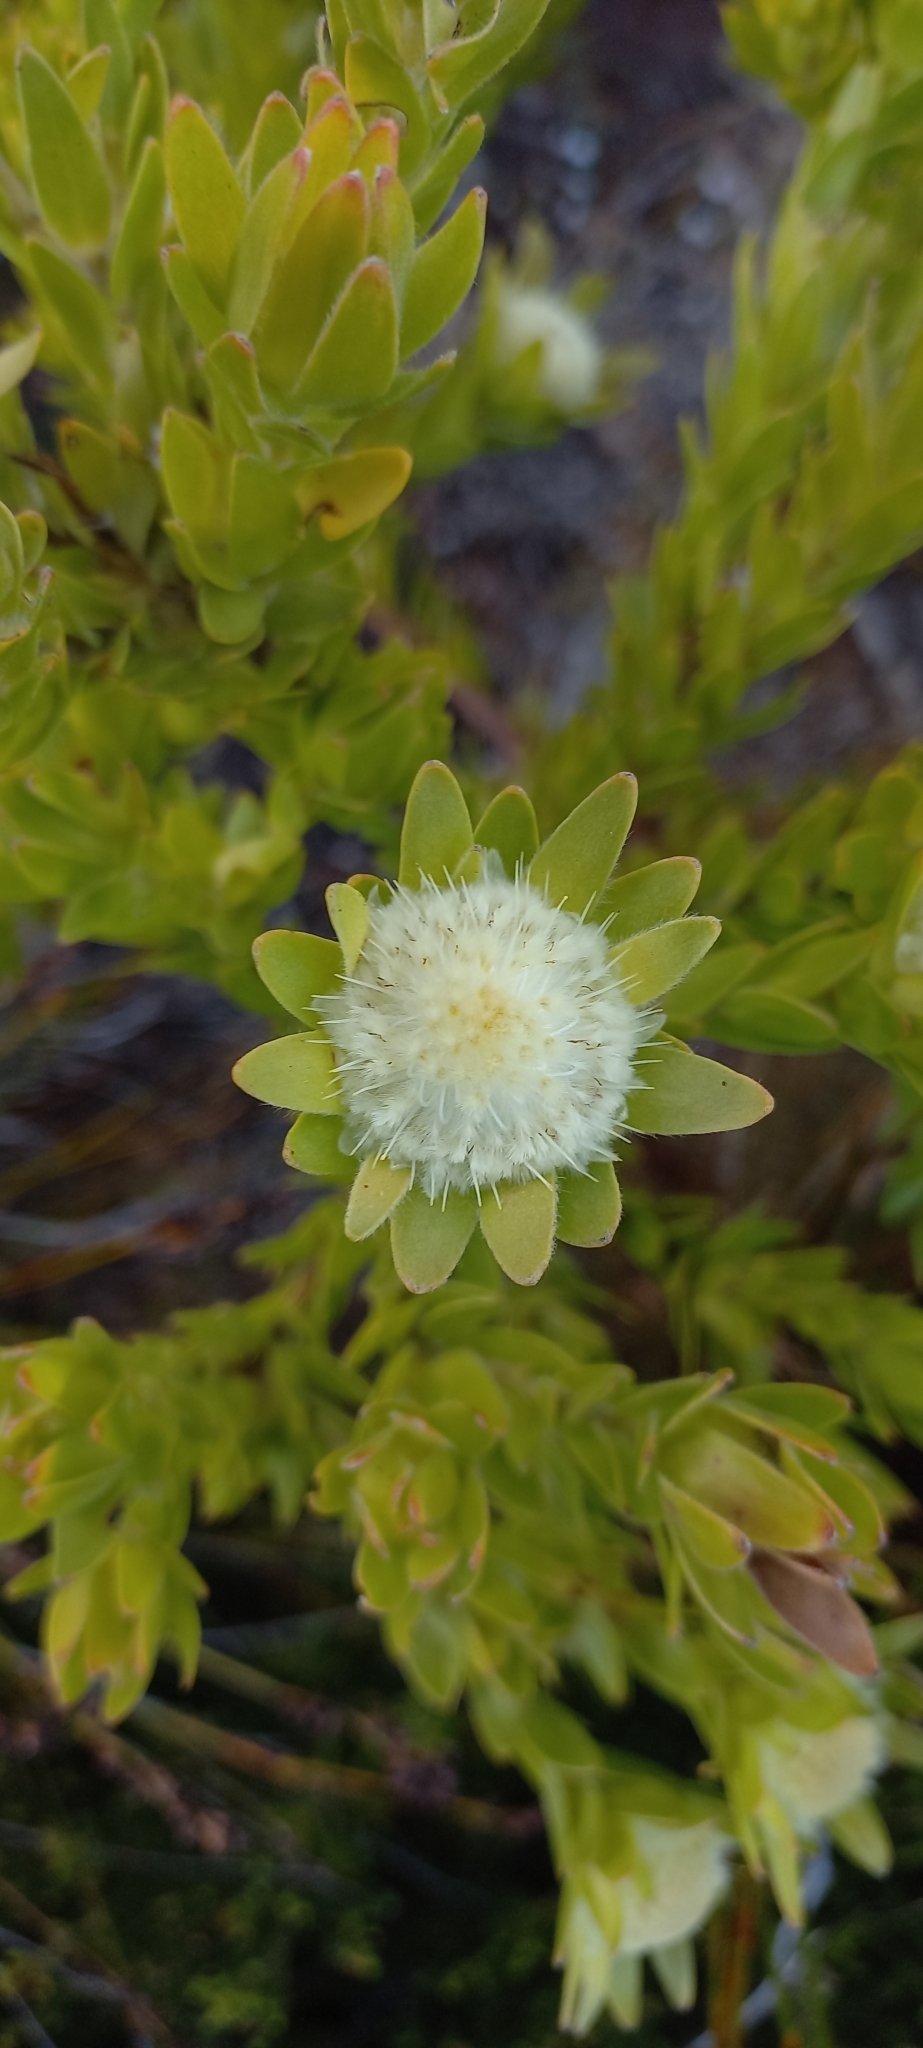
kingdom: Plantae
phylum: Tracheophyta
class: Magnoliopsida
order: Proteales
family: Proteaceae
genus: Diastella
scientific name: Diastella thymelaeoides
